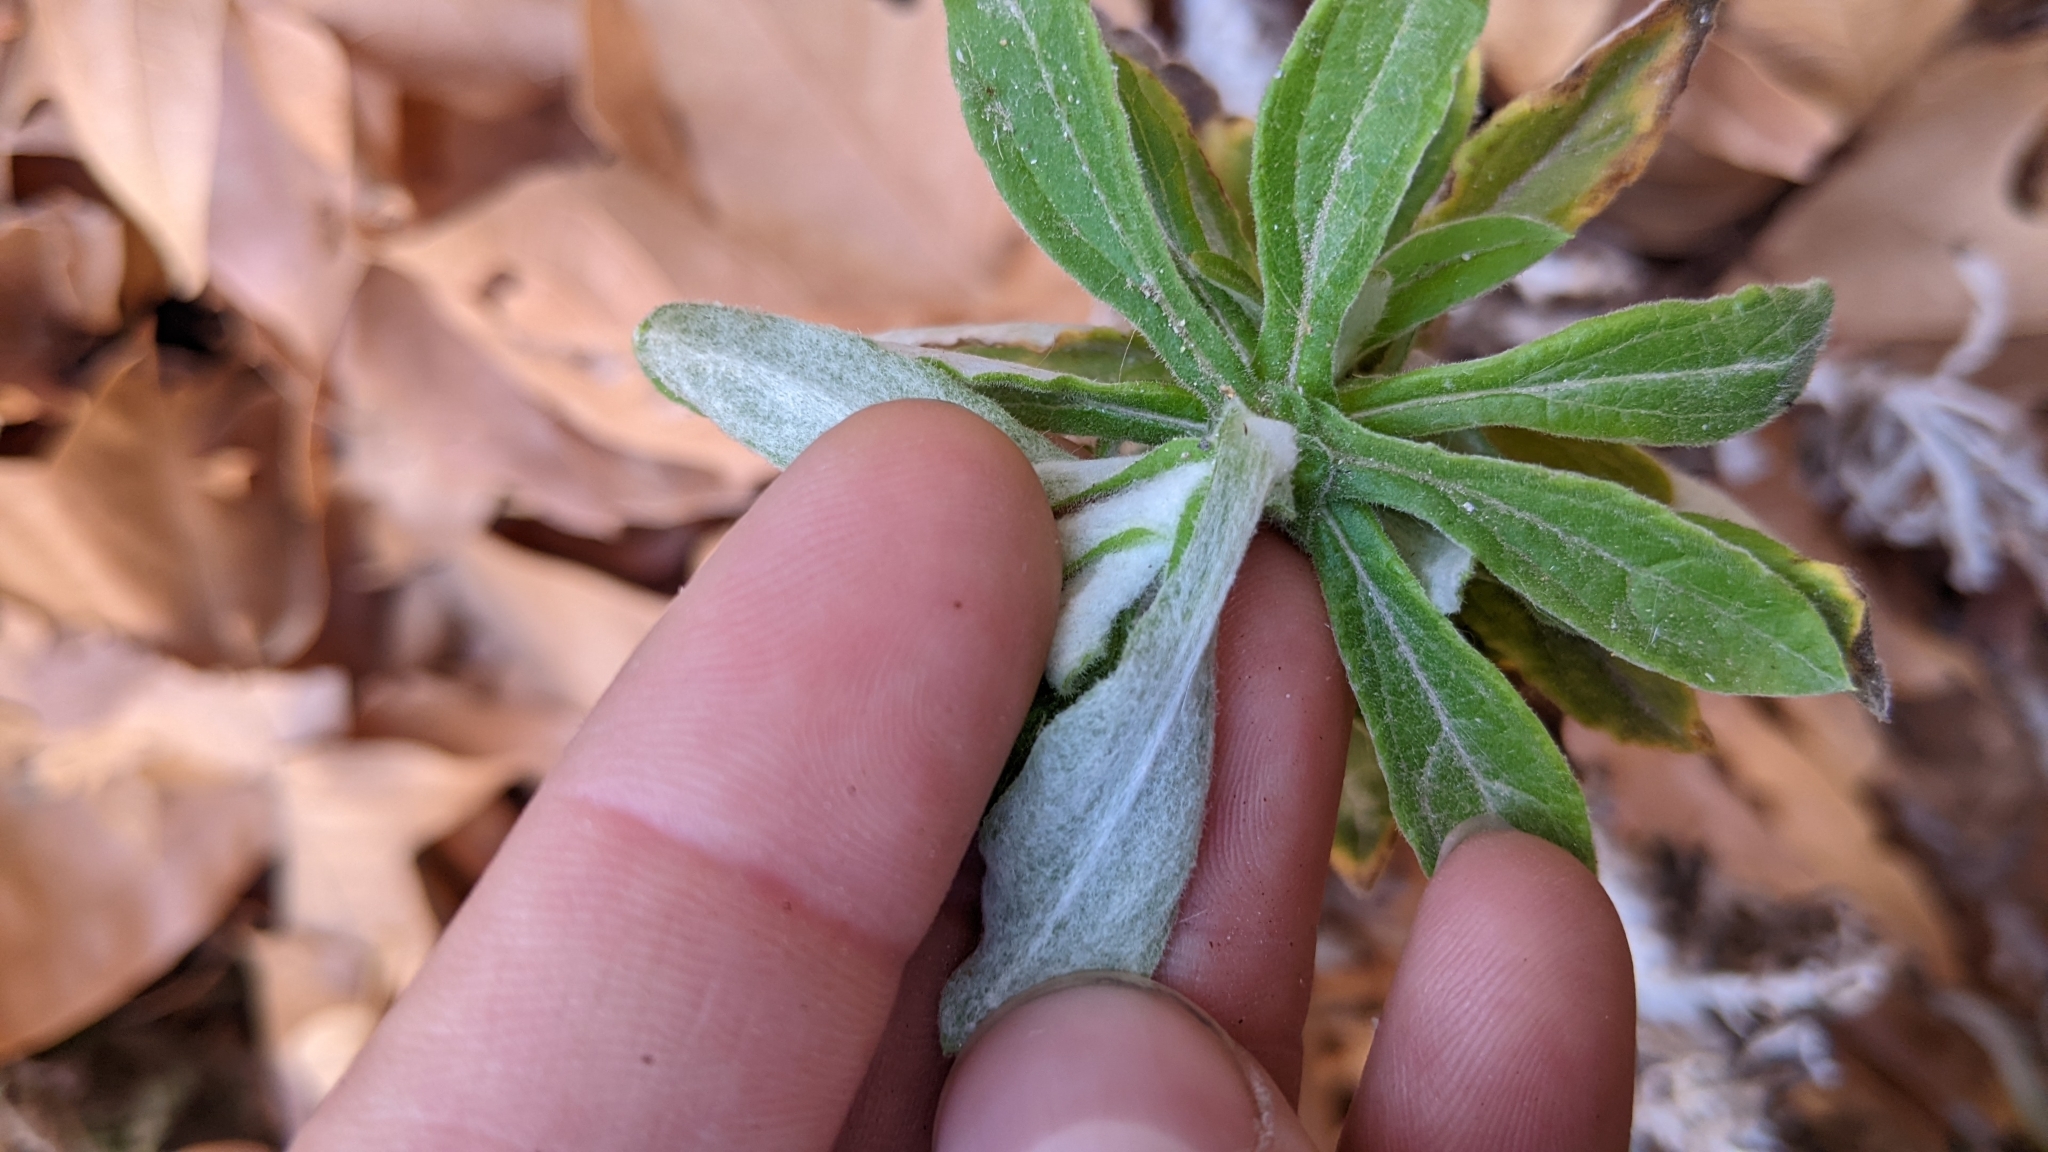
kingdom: Plantae
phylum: Tracheophyta
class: Magnoliopsida
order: Asterales
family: Asteraceae
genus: Pseudognaphalium
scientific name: Pseudognaphalium biolettii
